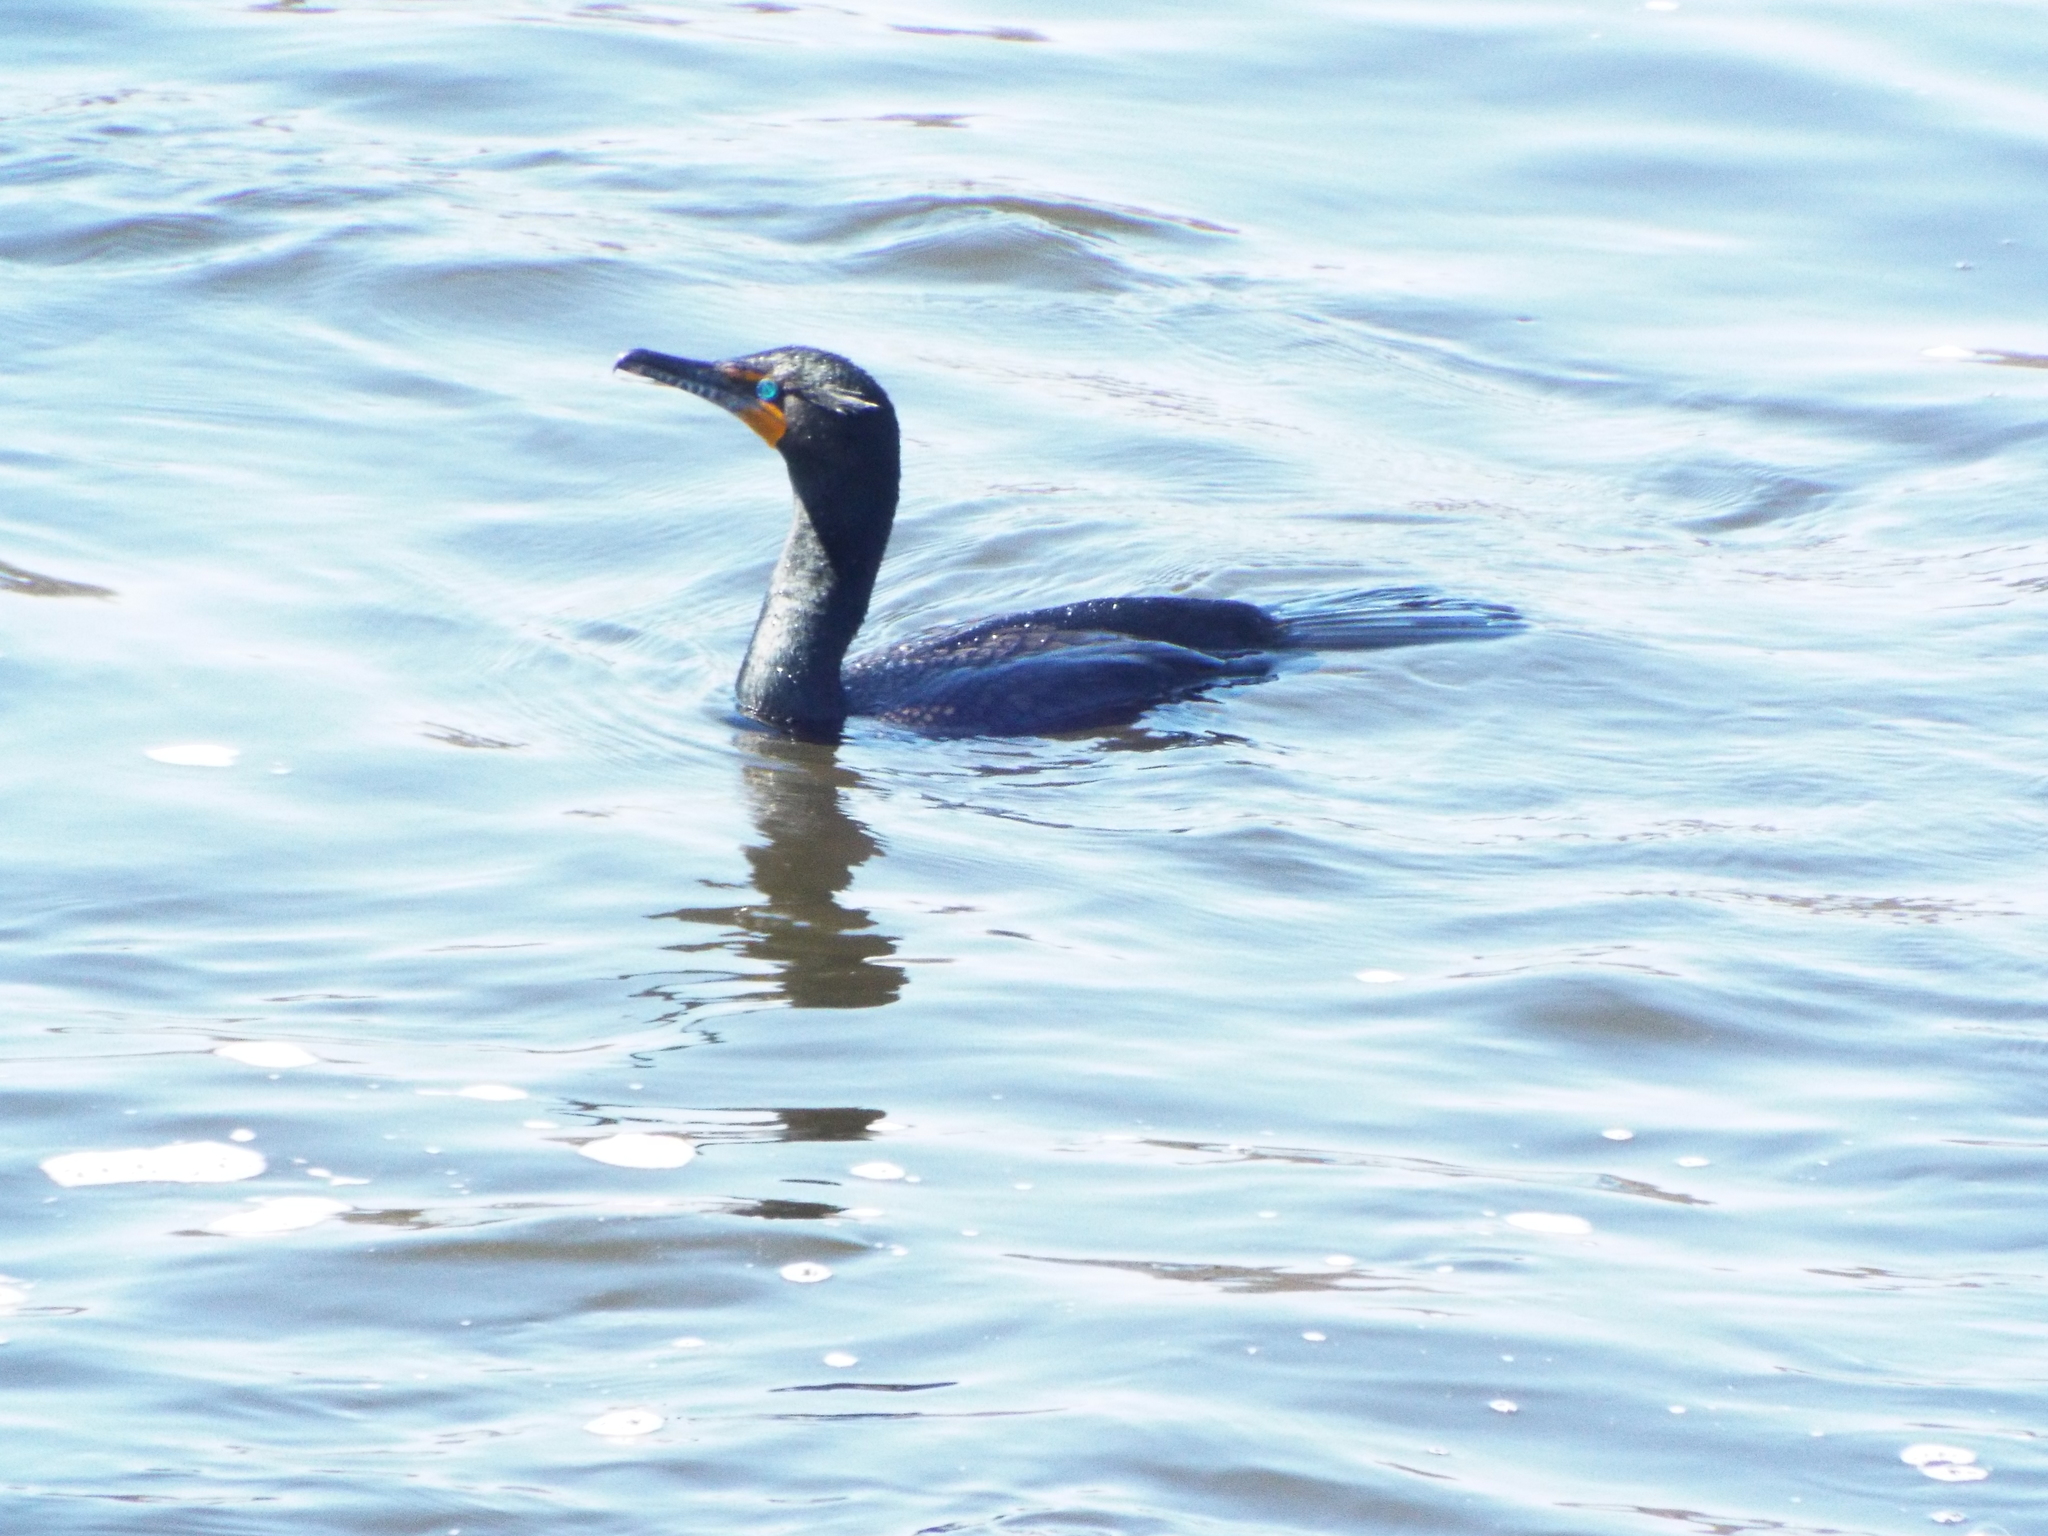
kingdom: Animalia
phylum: Chordata
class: Aves
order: Suliformes
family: Phalacrocoracidae
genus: Phalacrocorax
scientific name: Phalacrocorax auritus
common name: Double-crested cormorant
